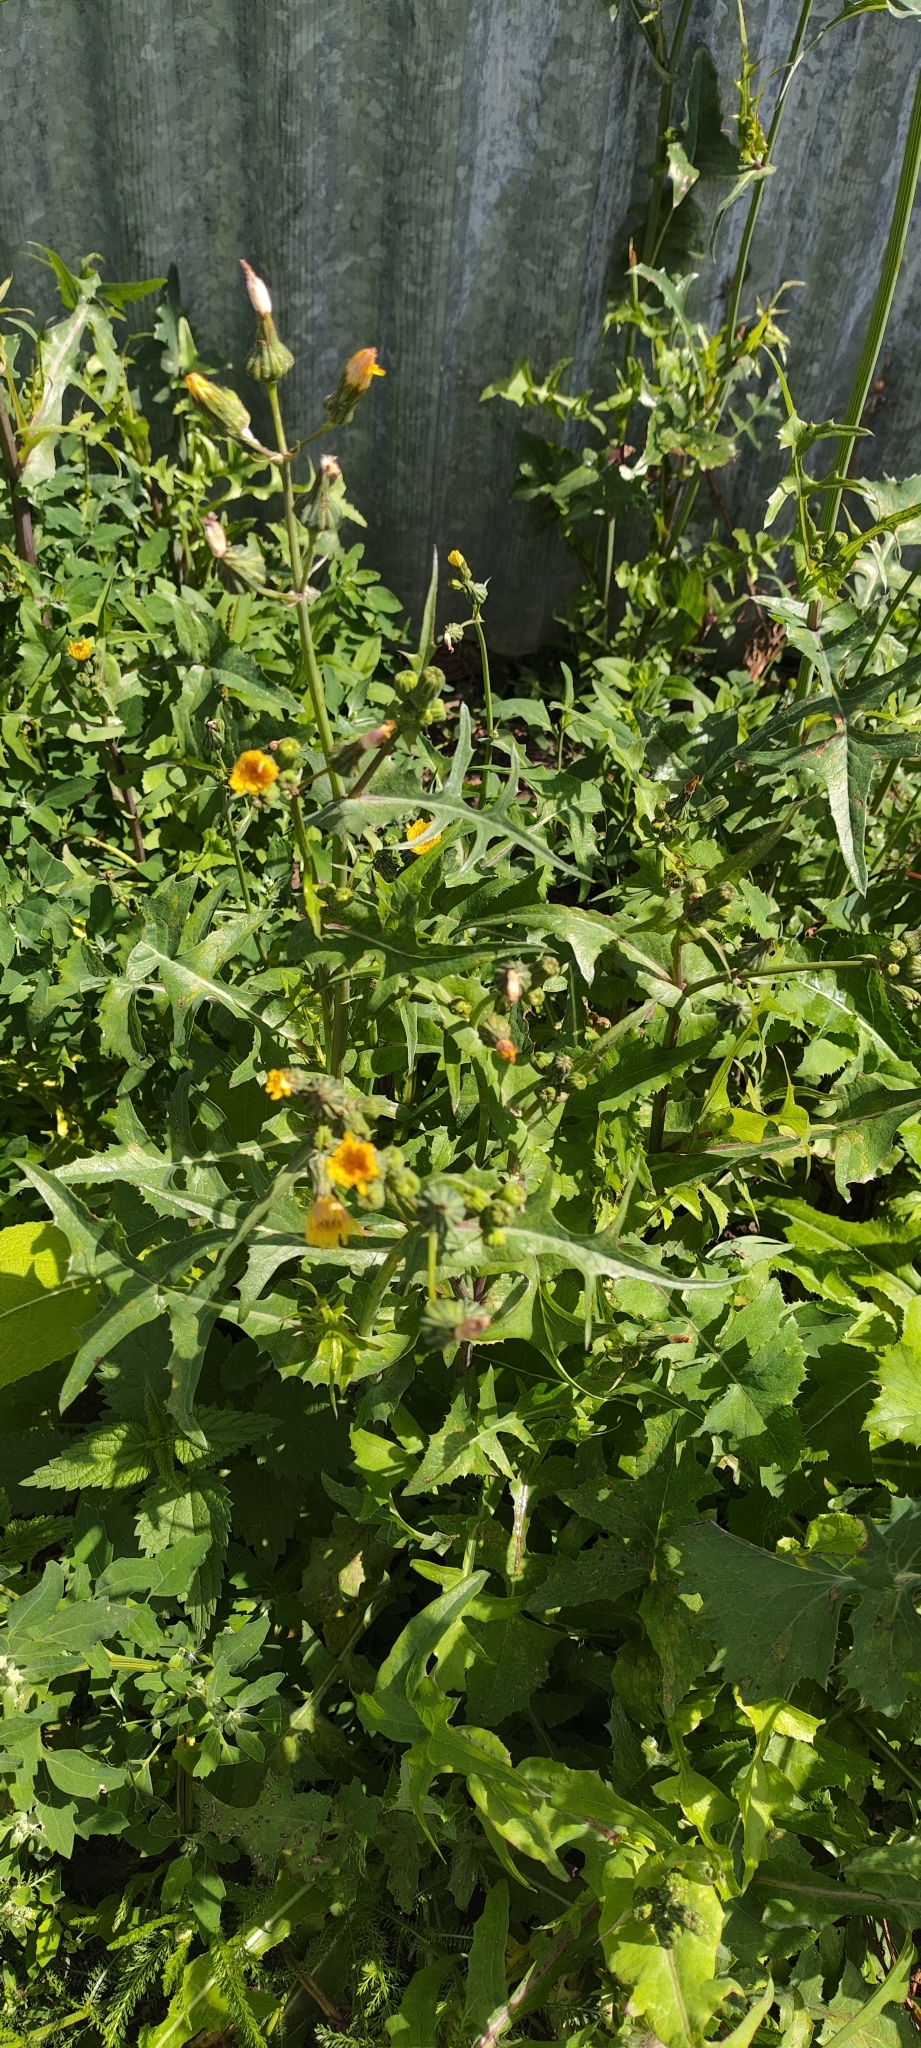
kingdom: Plantae
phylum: Tracheophyta
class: Magnoliopsida
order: Asterales
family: Asteraceae
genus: Sonchus
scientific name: Sonchus oleraceus
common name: Common sowthistle
